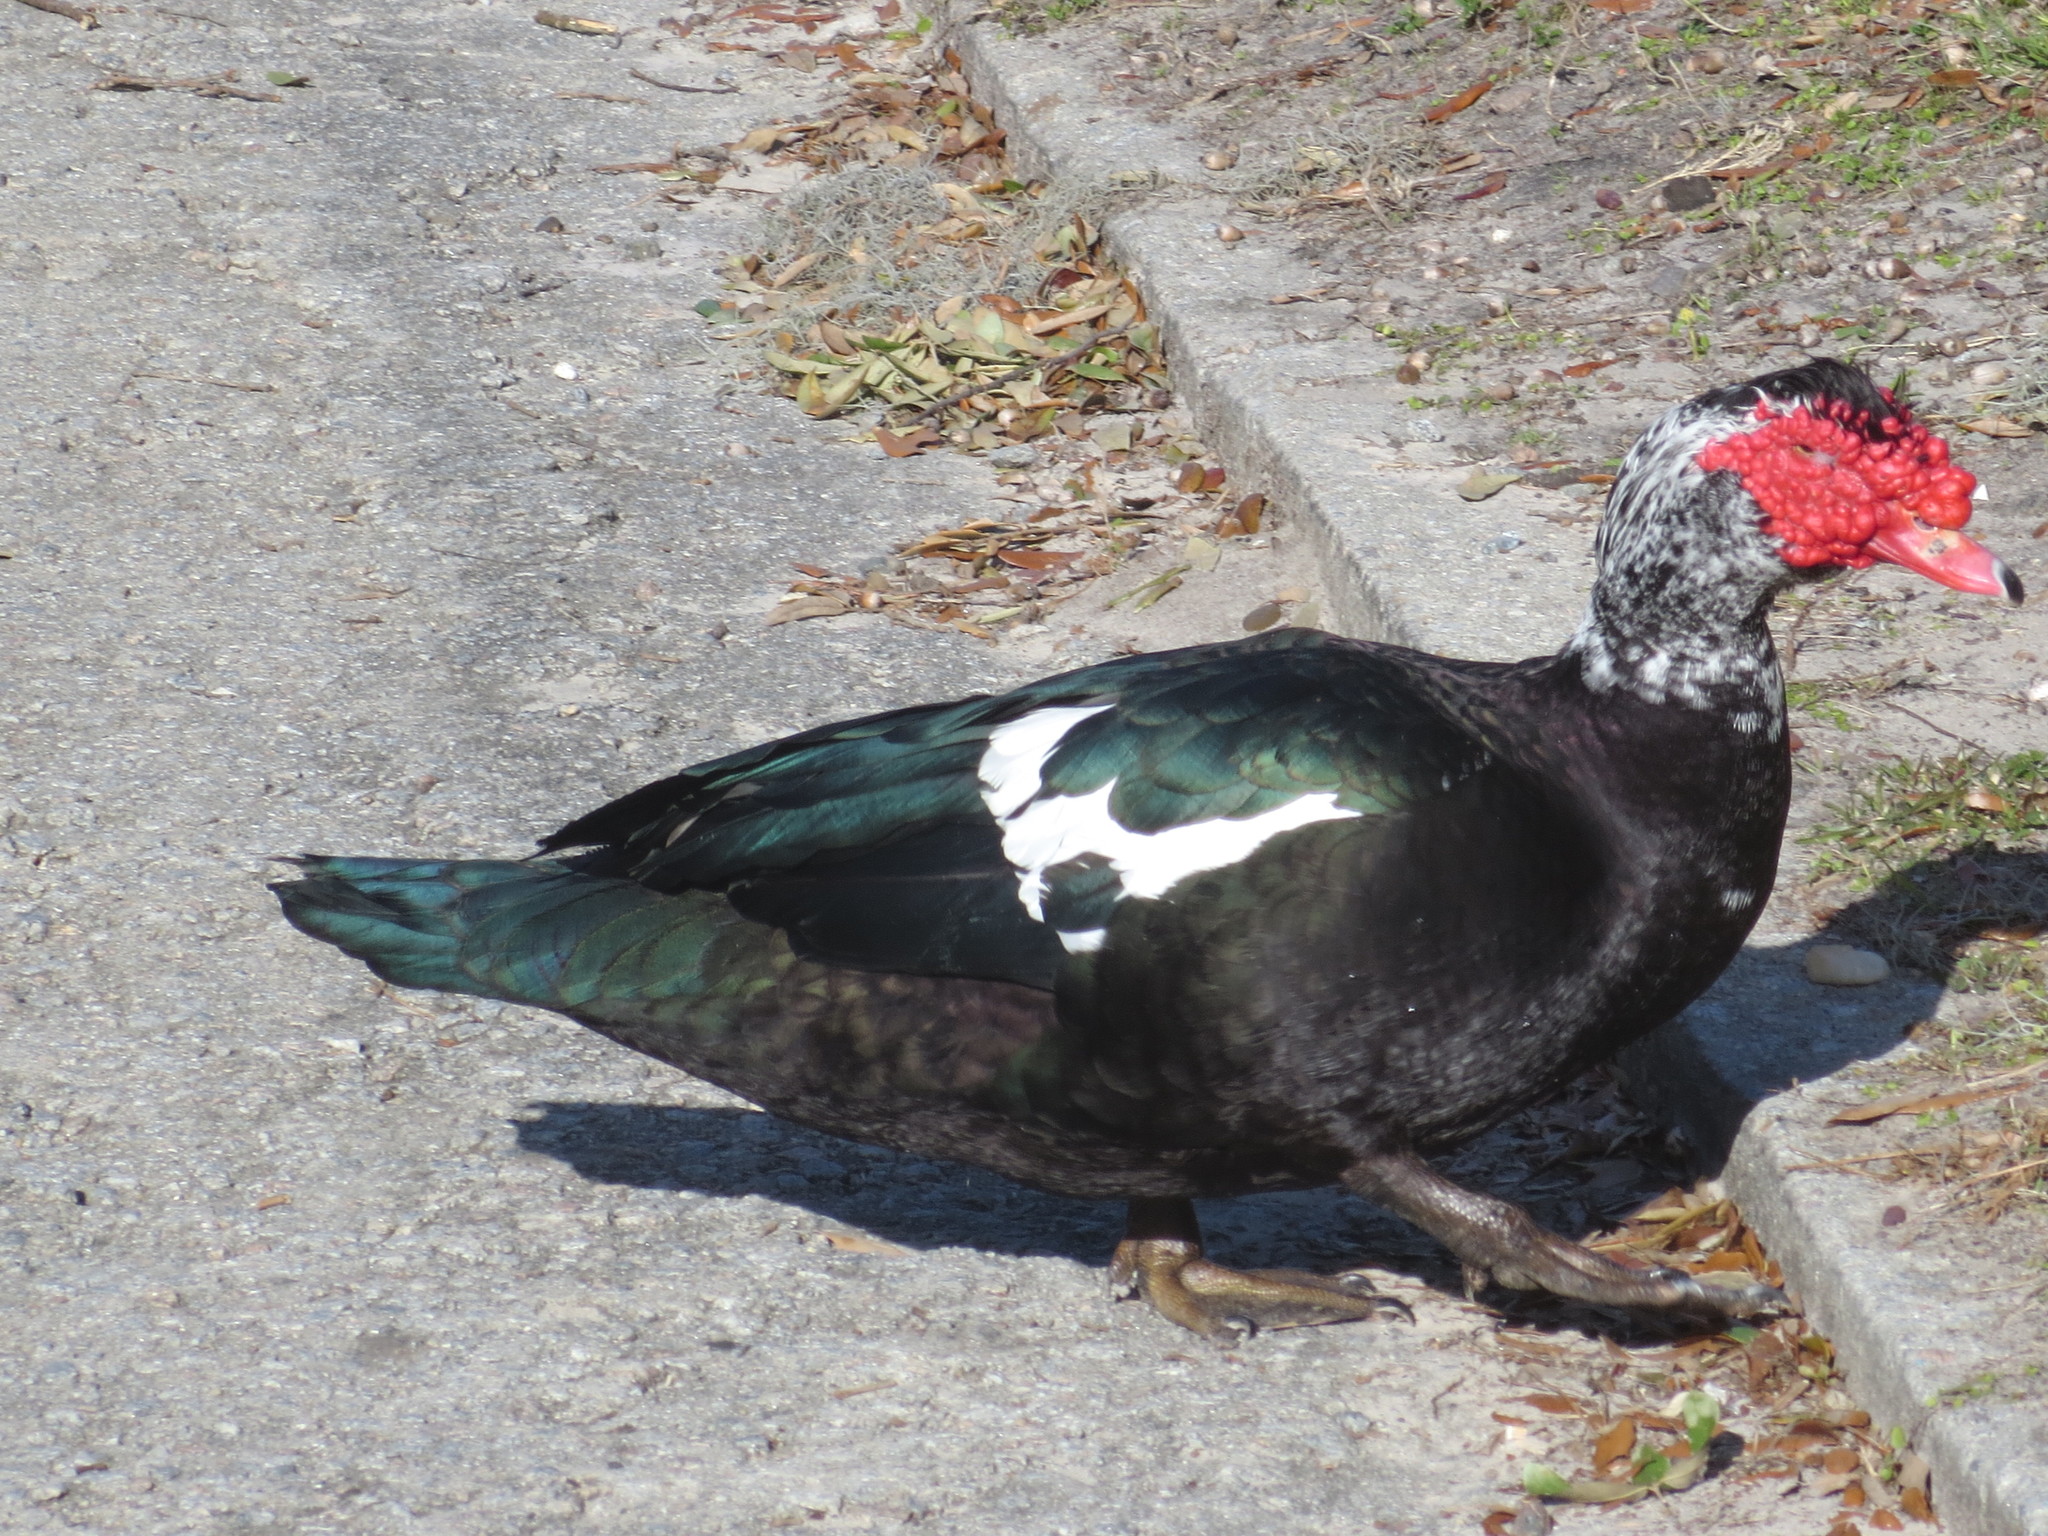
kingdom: Animalia
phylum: Chordata
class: Aves
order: Anseriformes
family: Anatidae
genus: Cairina
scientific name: Cairina moschata
